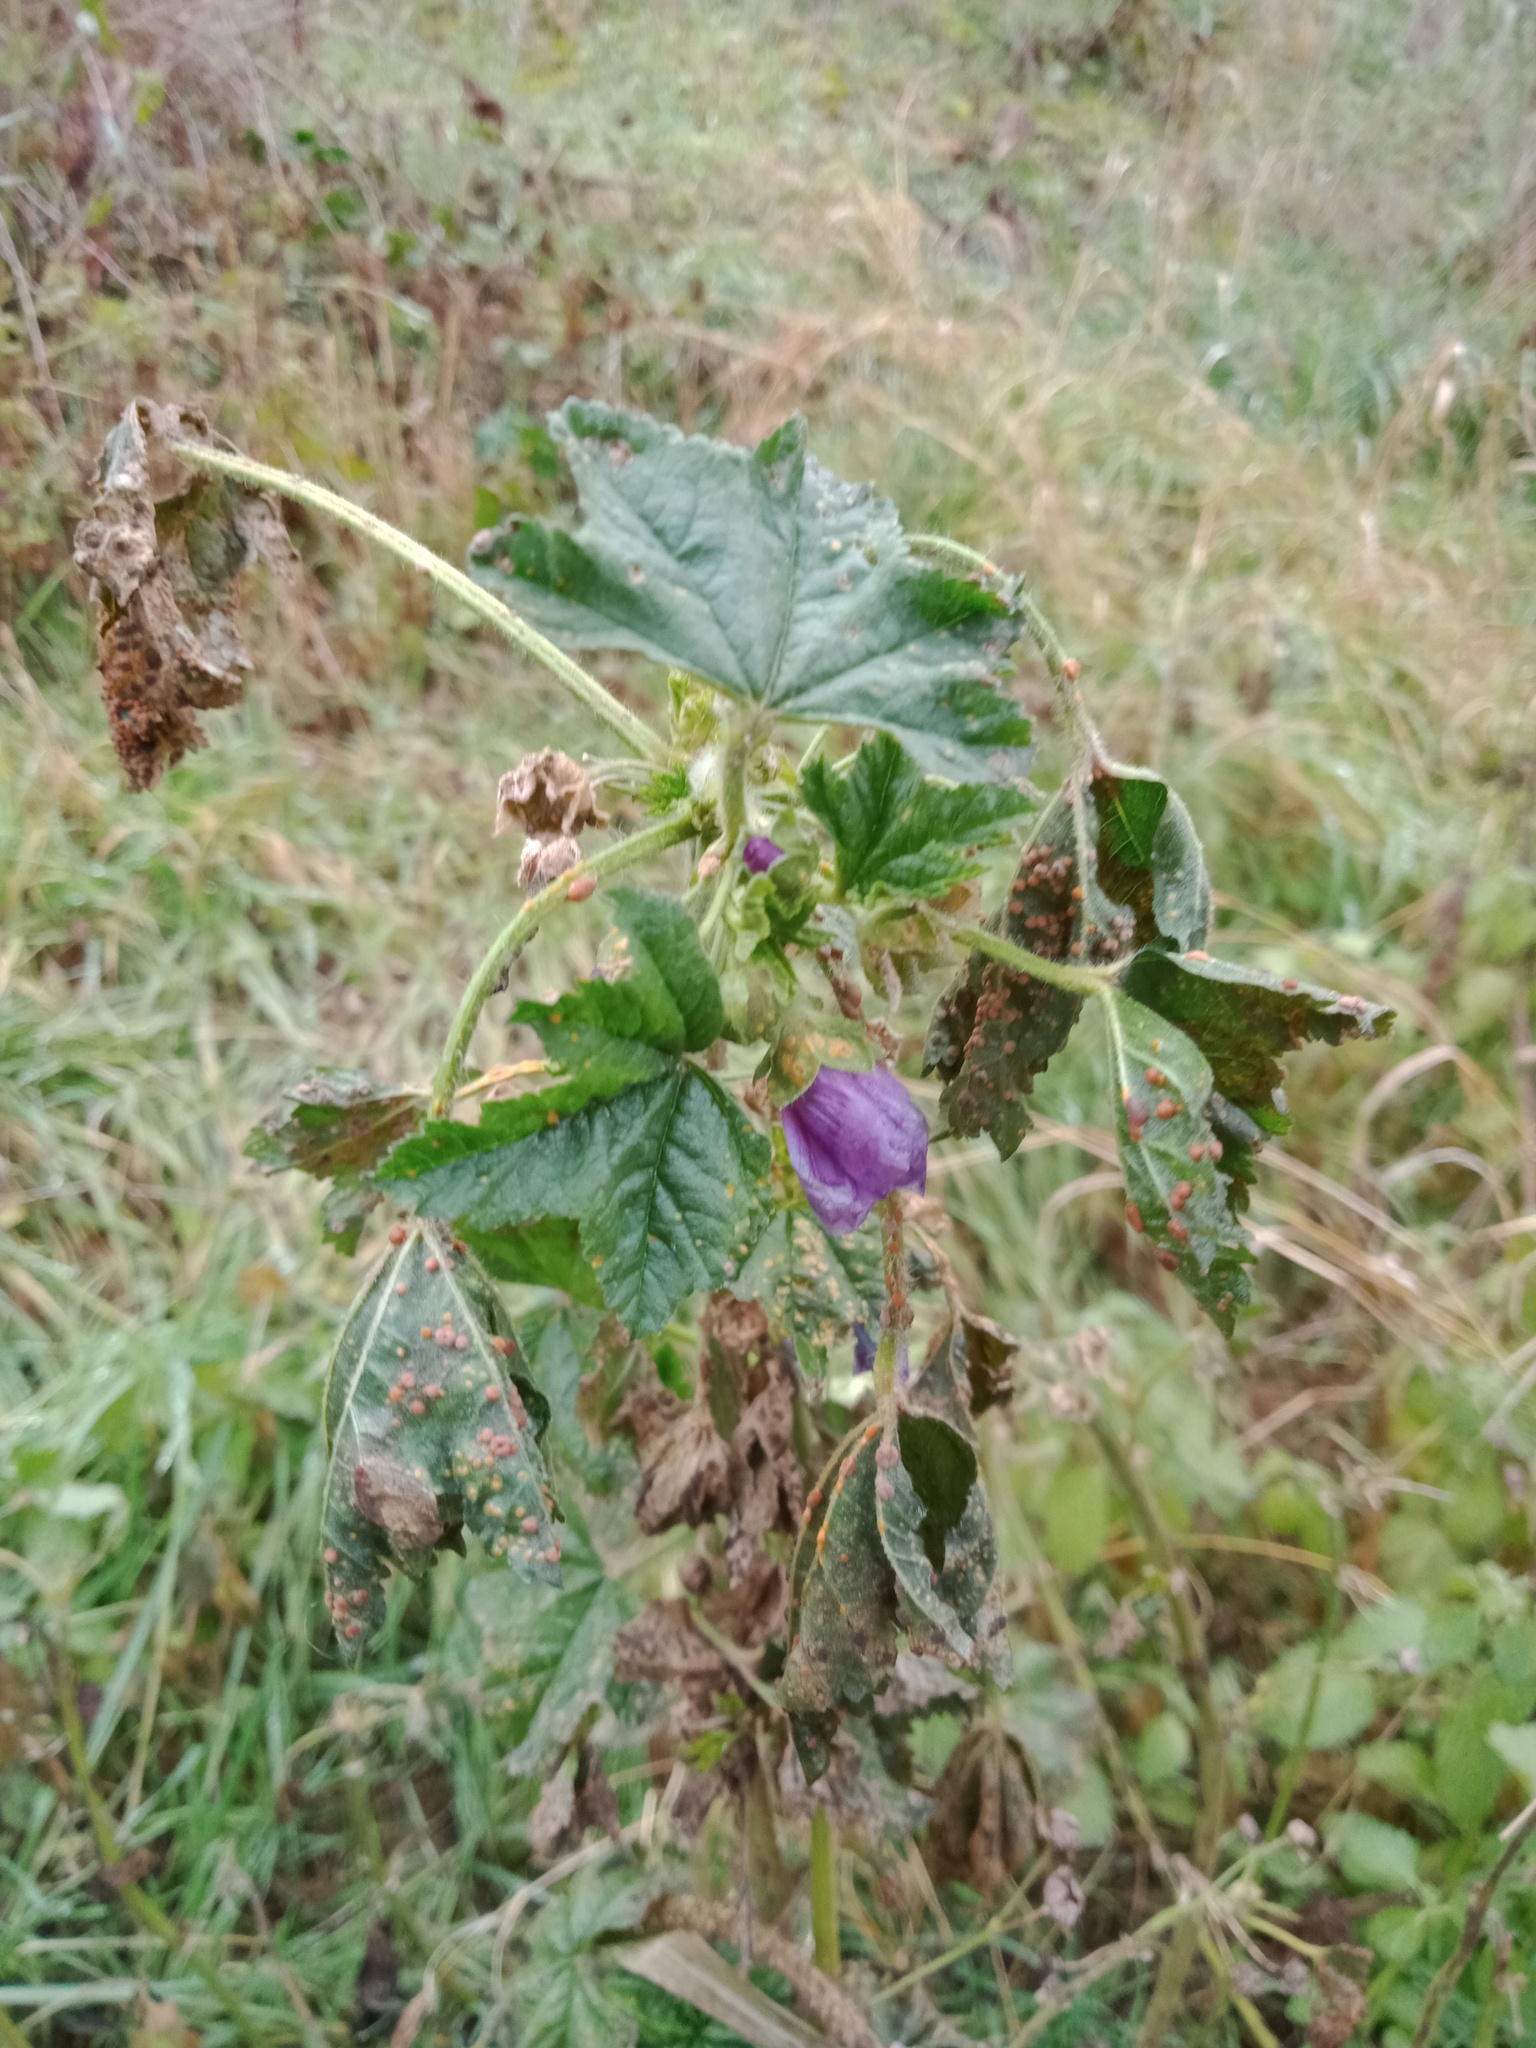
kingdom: Plantae
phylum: Tracheophyta
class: Magnoliopsida
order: Malvales
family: Malvaceae
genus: Malva
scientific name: Malva sylvestris
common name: Common mallow
